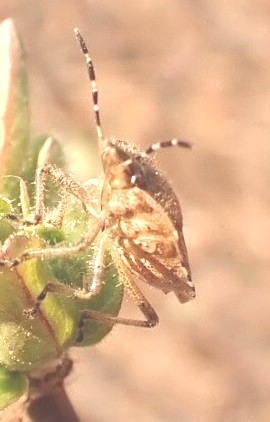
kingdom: Animalia
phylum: Arthropoda
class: Insecta
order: Hemiptera
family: Pentatomidae
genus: Dolycoris
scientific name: Dolycoris baccarum
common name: Sloe bug
